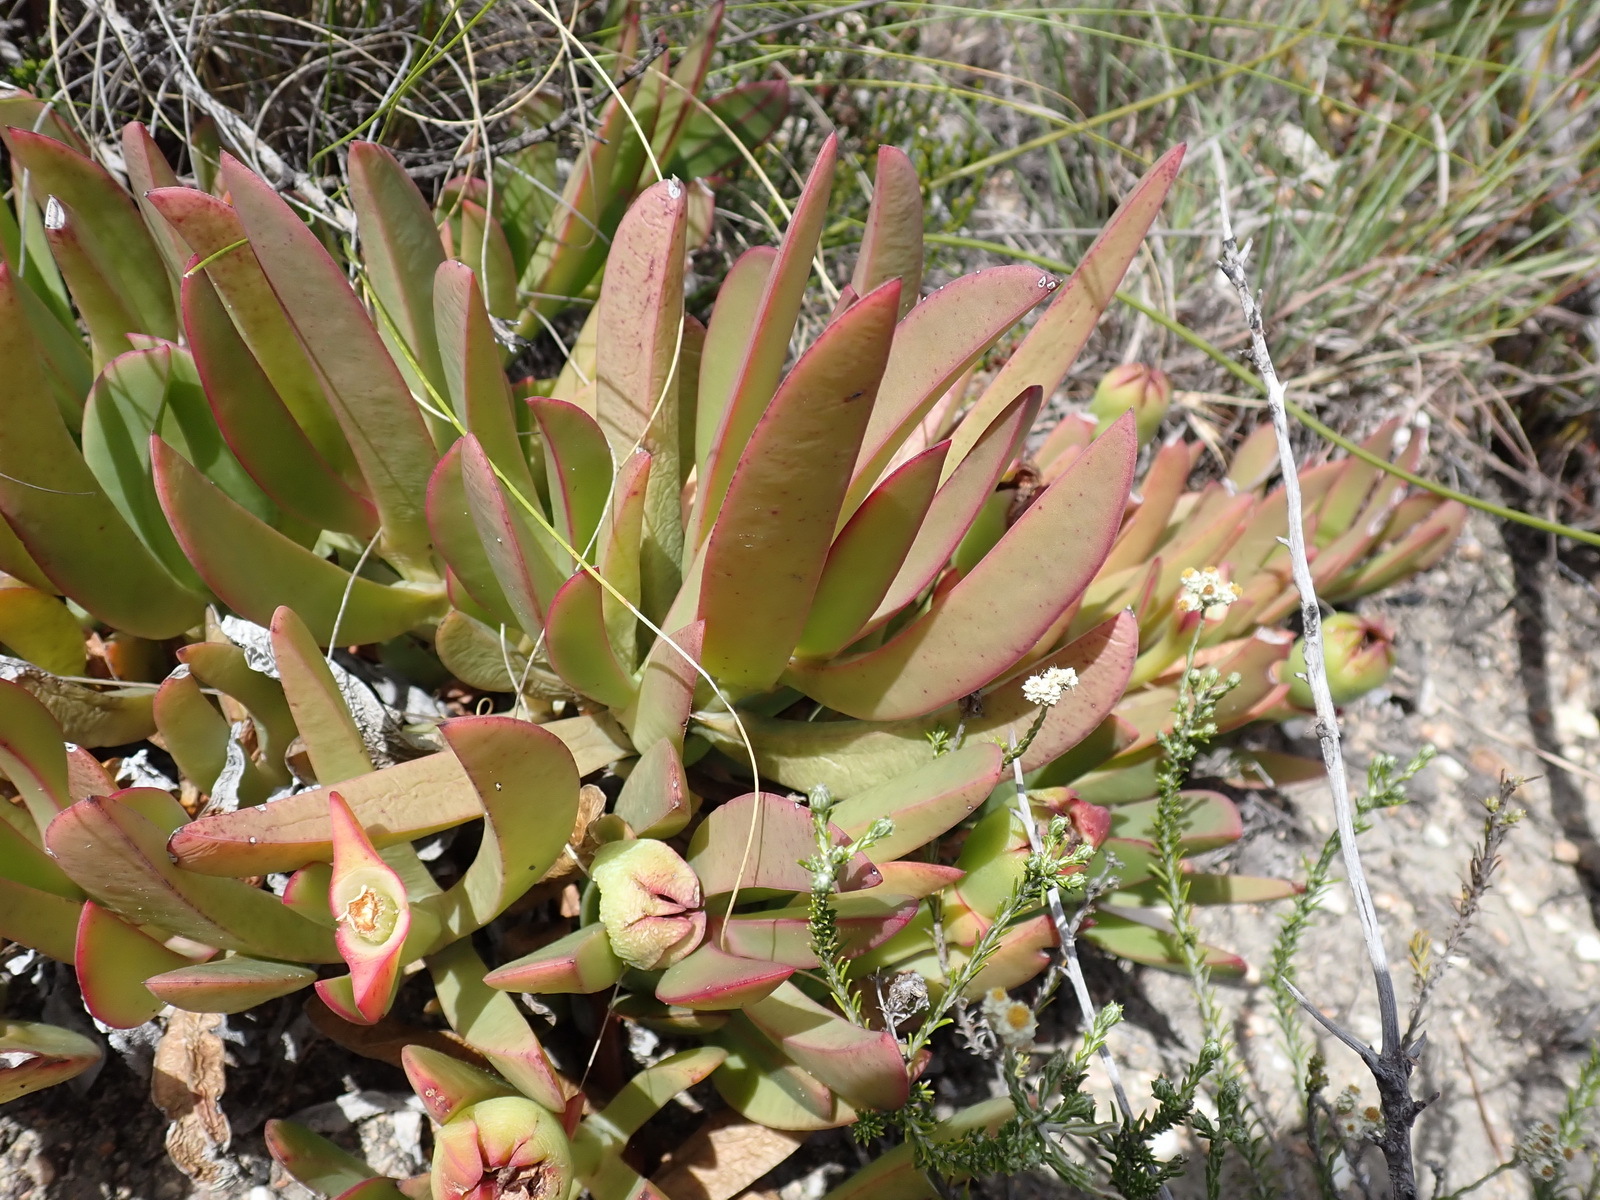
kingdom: Plantae
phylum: Tracheophyta
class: Magnoliopsida
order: Caryophyllales
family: Aizoaceae
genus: Carpobrotus
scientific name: Carpobrotus mellei
